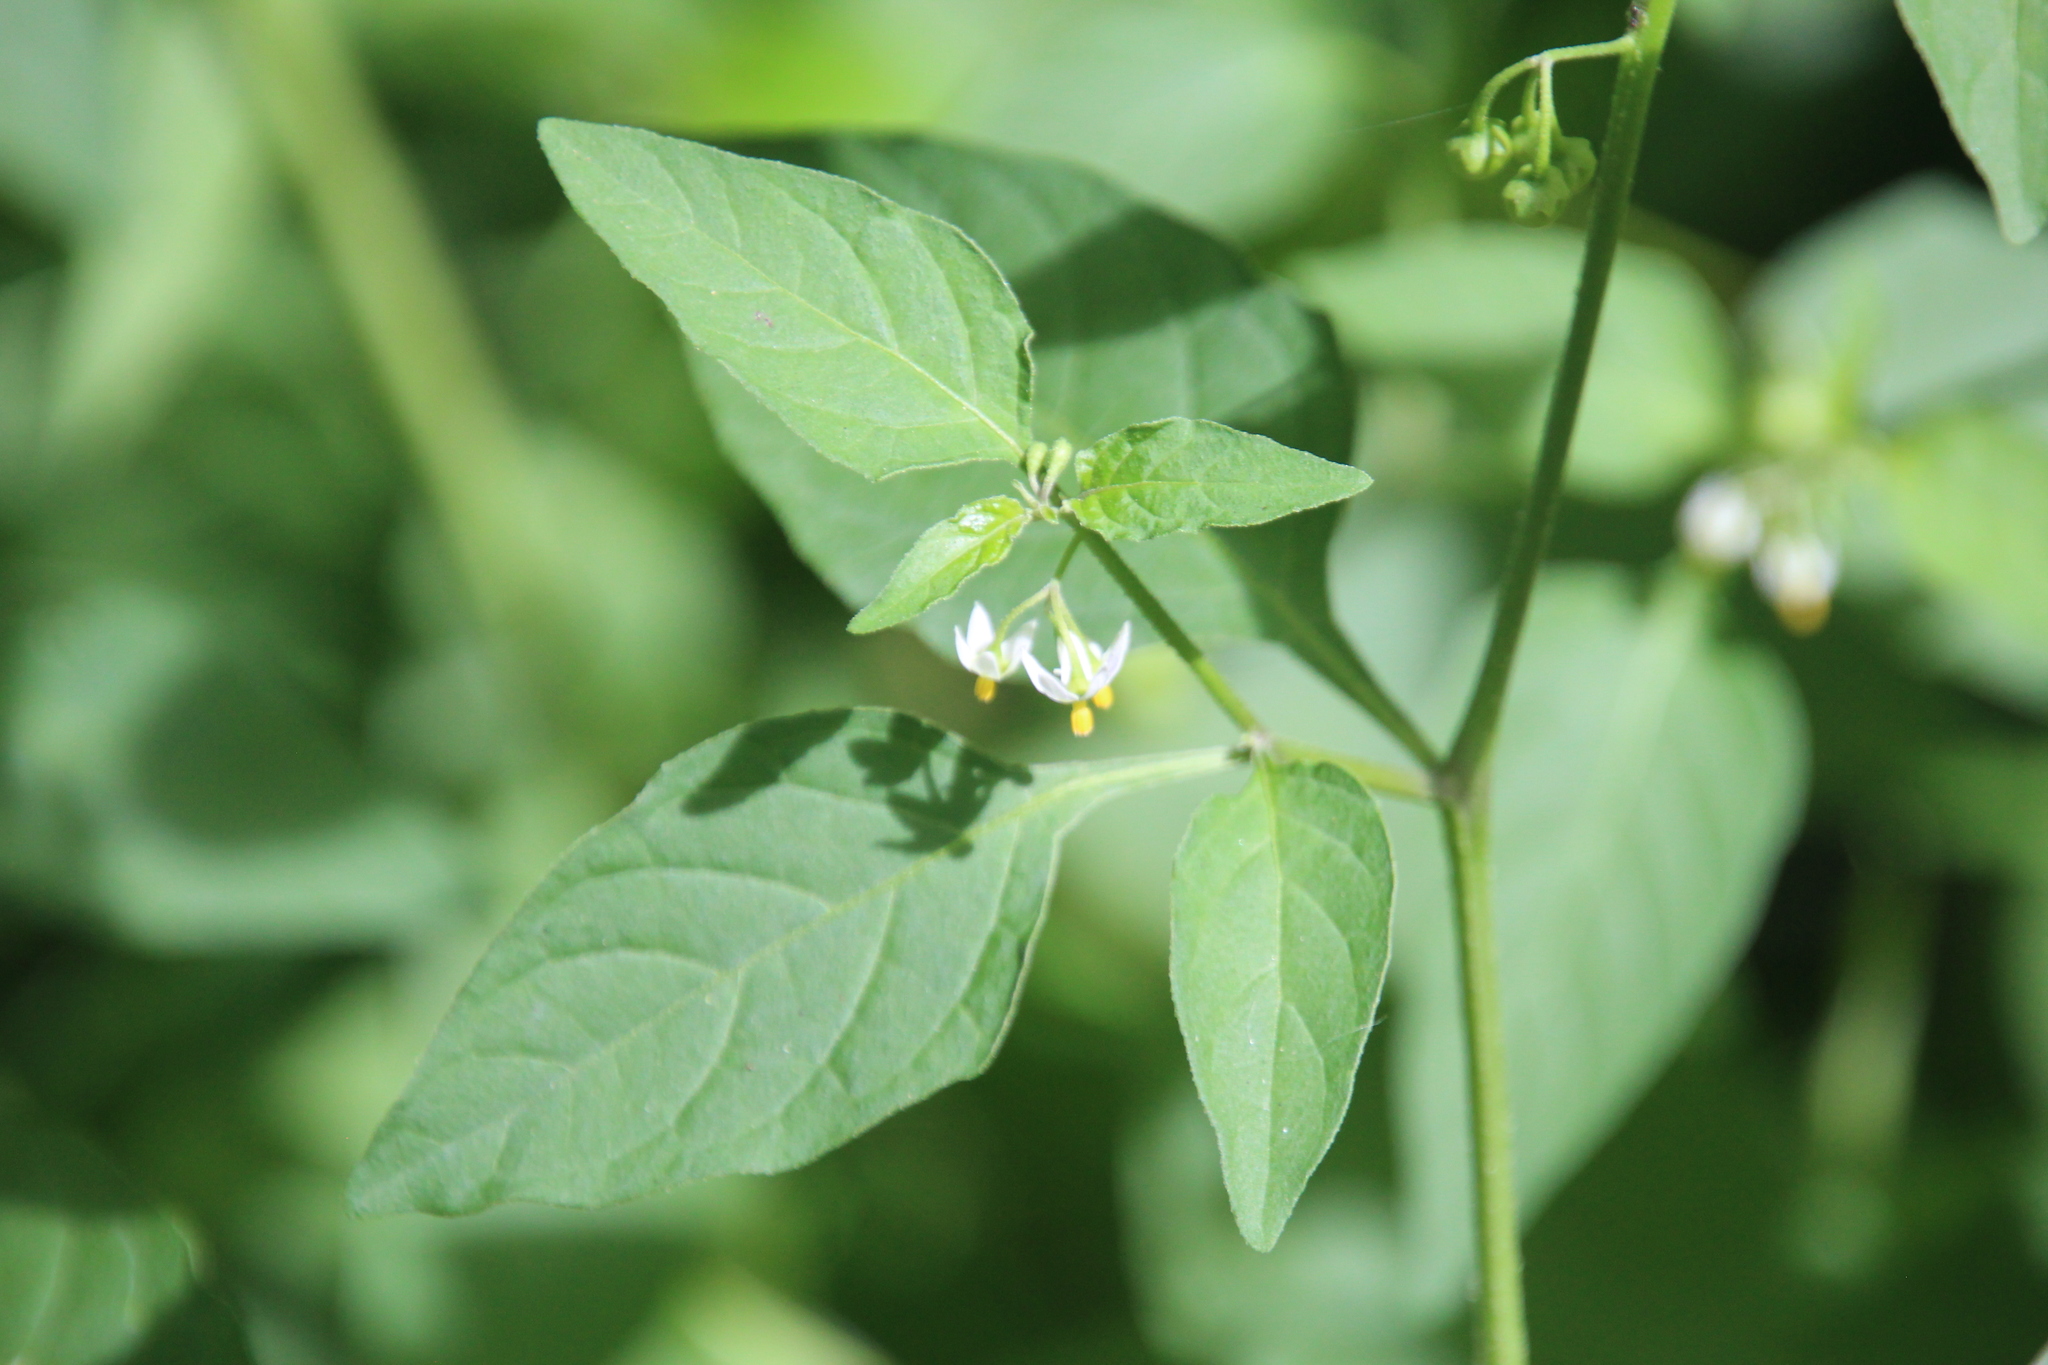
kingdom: Plantae
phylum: Tracheophyta
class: Magnoliopsida
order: Solanales
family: Solanaceae
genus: Solanum
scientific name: Solanum emulans
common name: Eastern black nightshade
